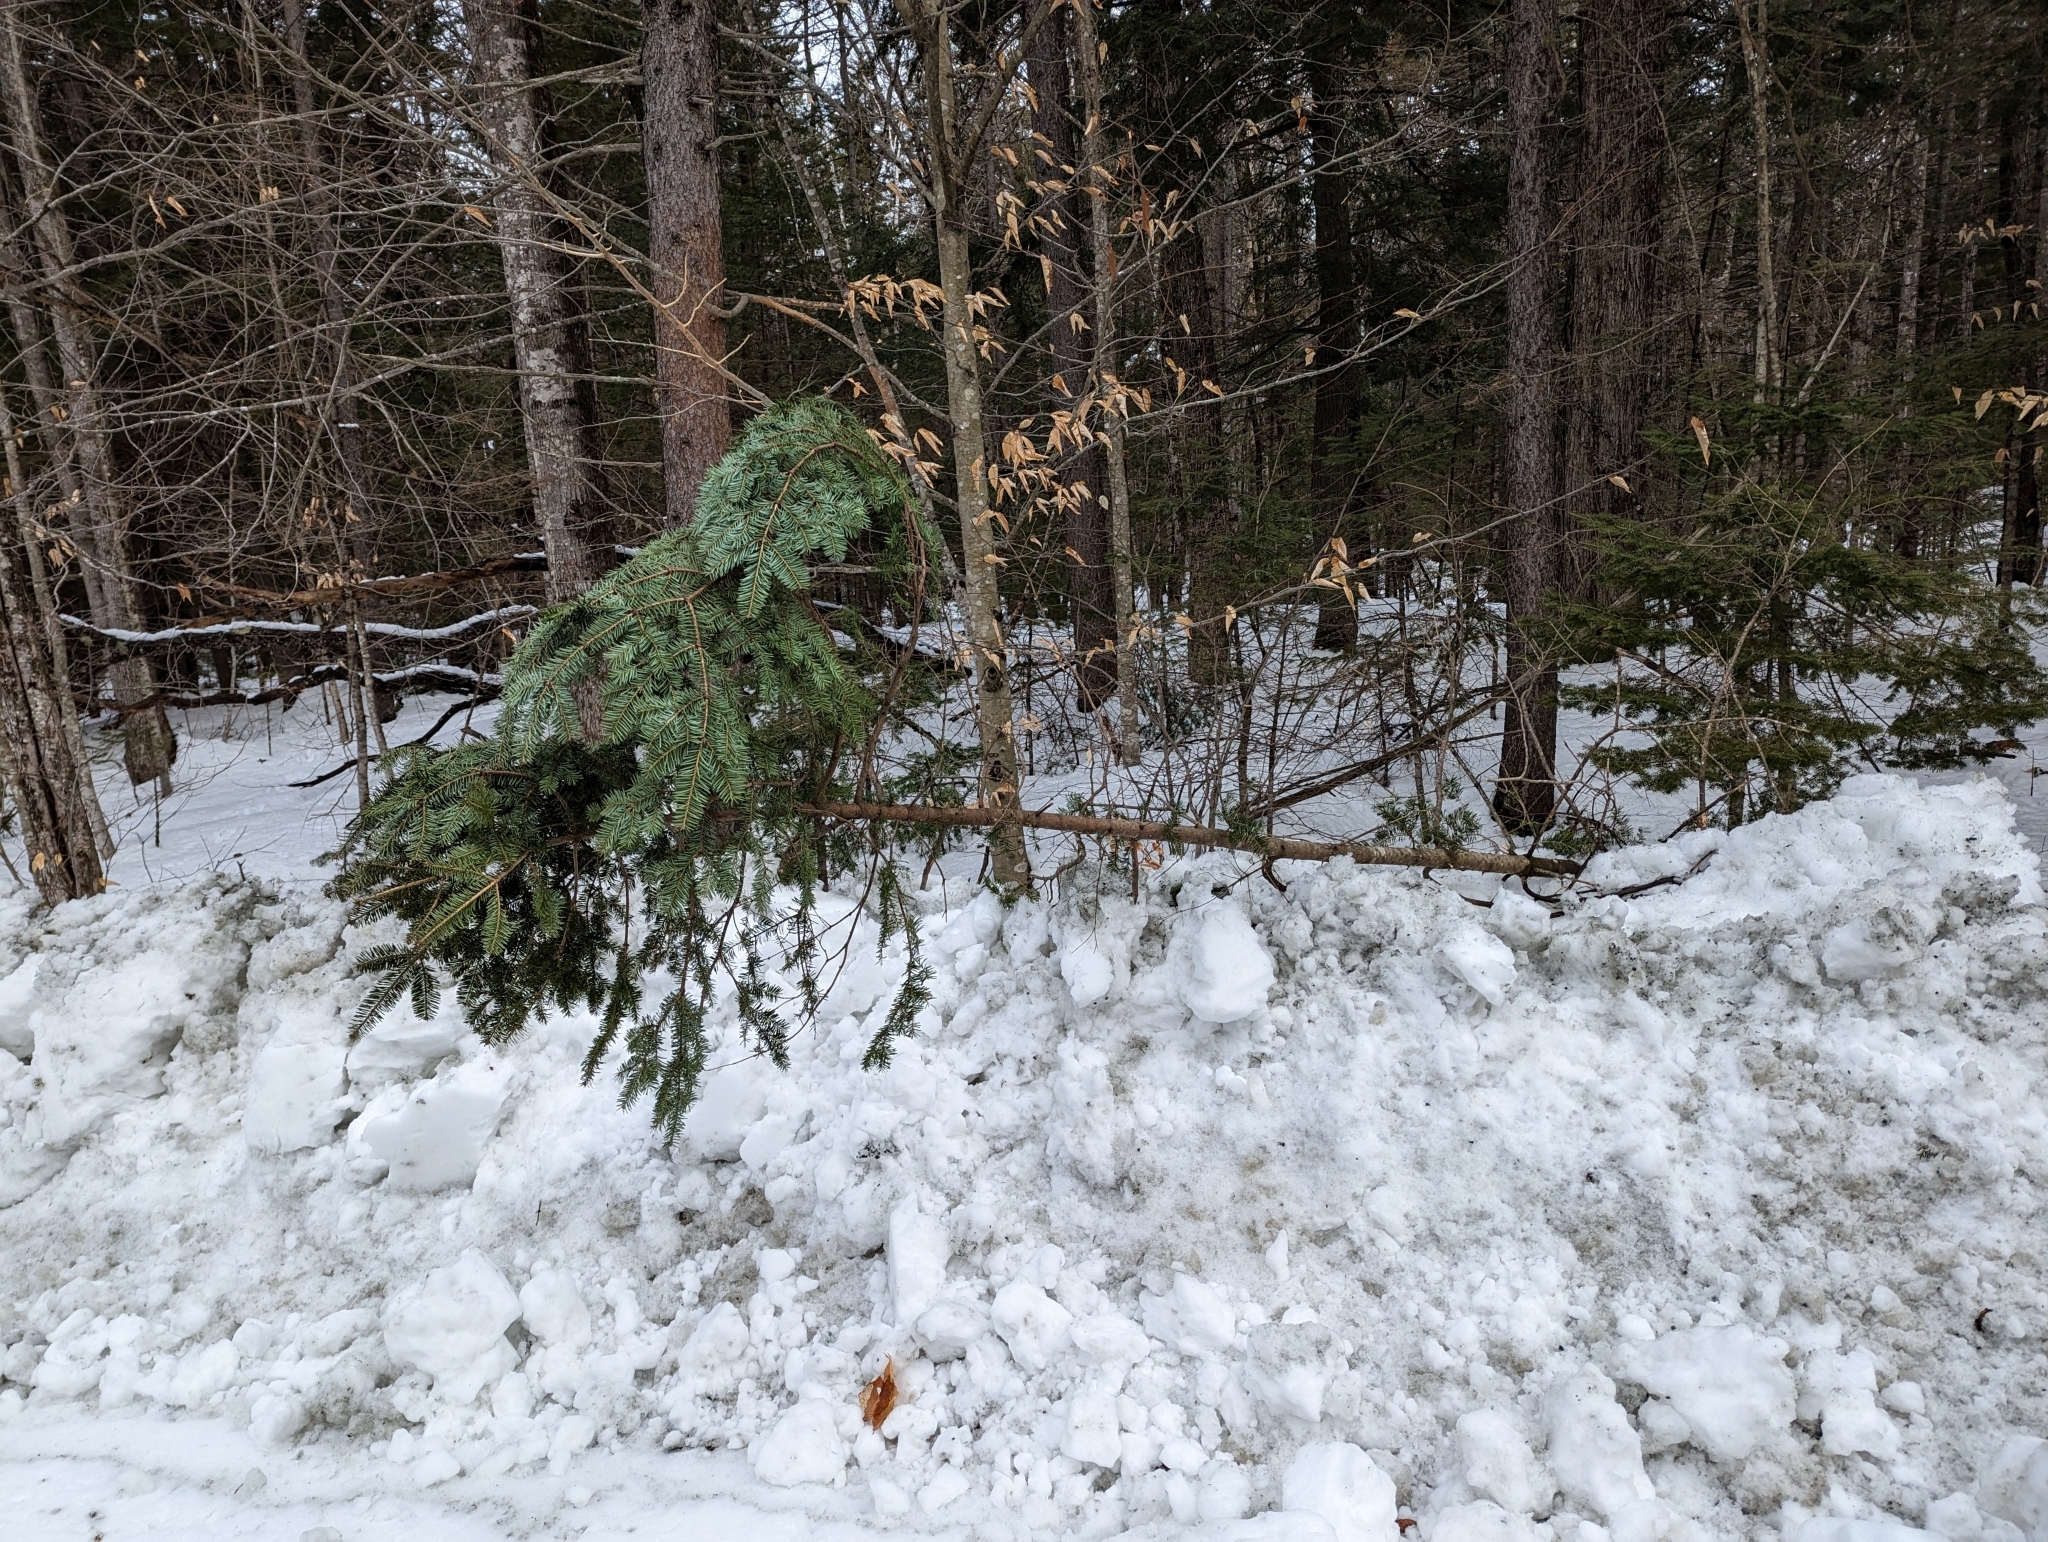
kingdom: Plantae
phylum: Tracheophyta
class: Pinopsida
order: Pinales
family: Pinaceae
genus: Abies
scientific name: Abies balsamea
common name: Balsam fir
